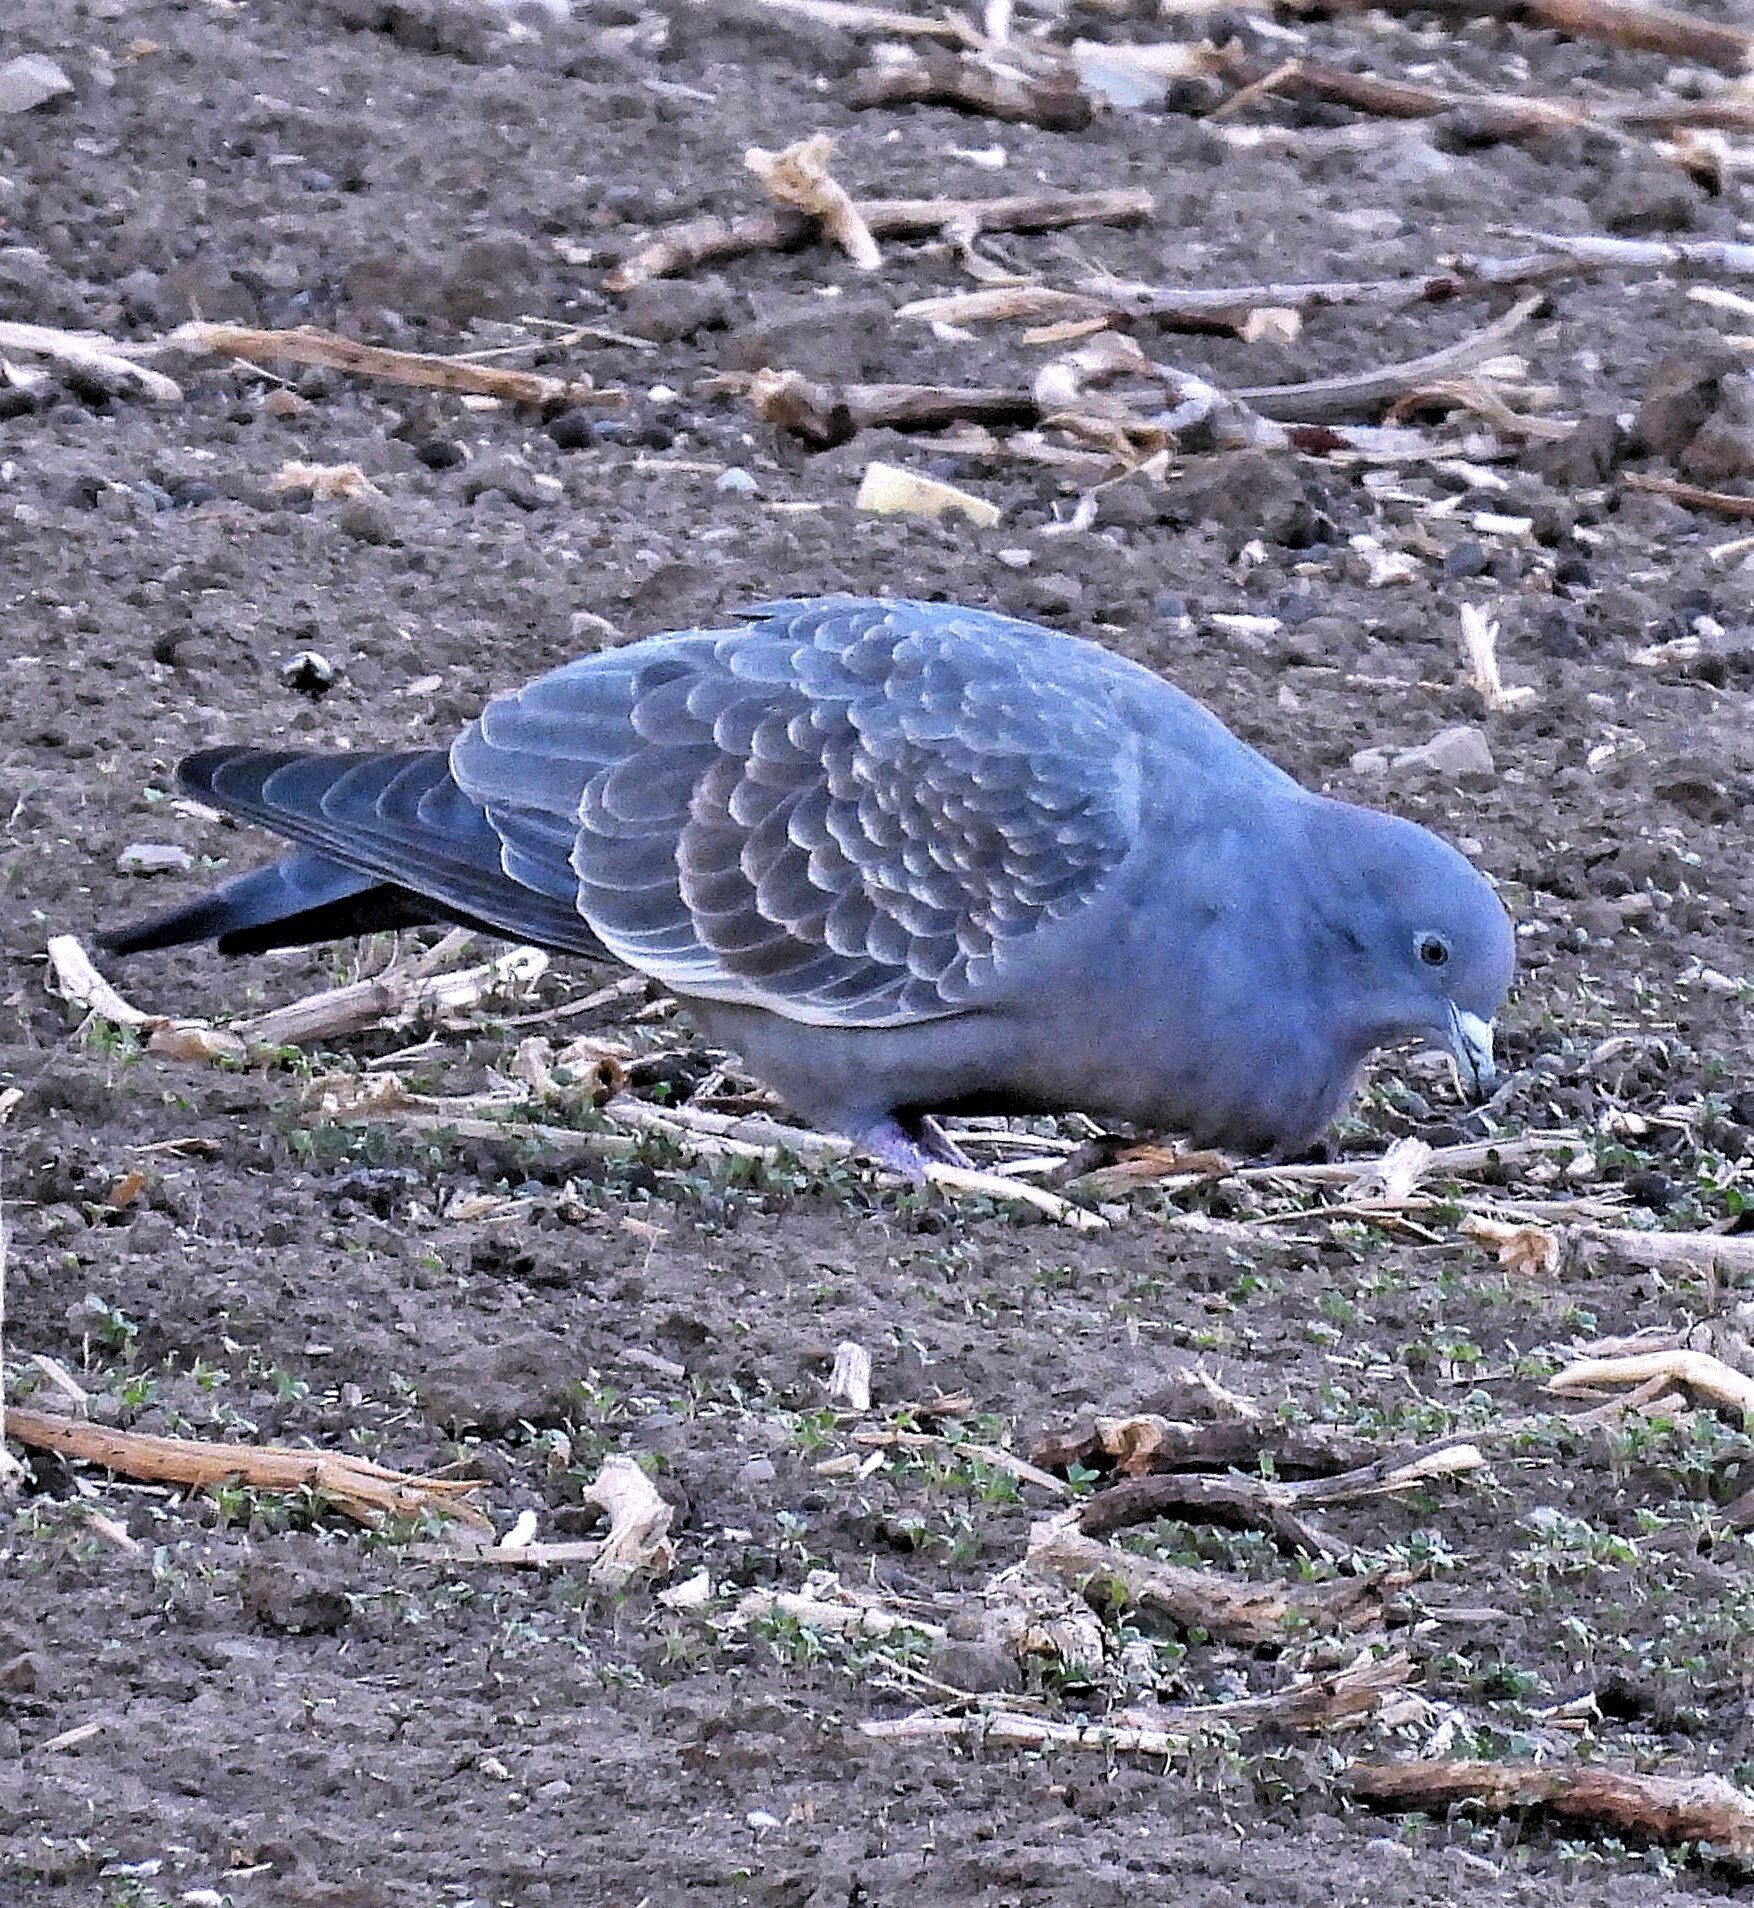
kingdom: Animalia
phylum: Chordata
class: Aves
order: Columbiformes
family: Columbidae
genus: Patagioenas
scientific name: Patagioenas maculosa
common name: Spot-winged pigeon
